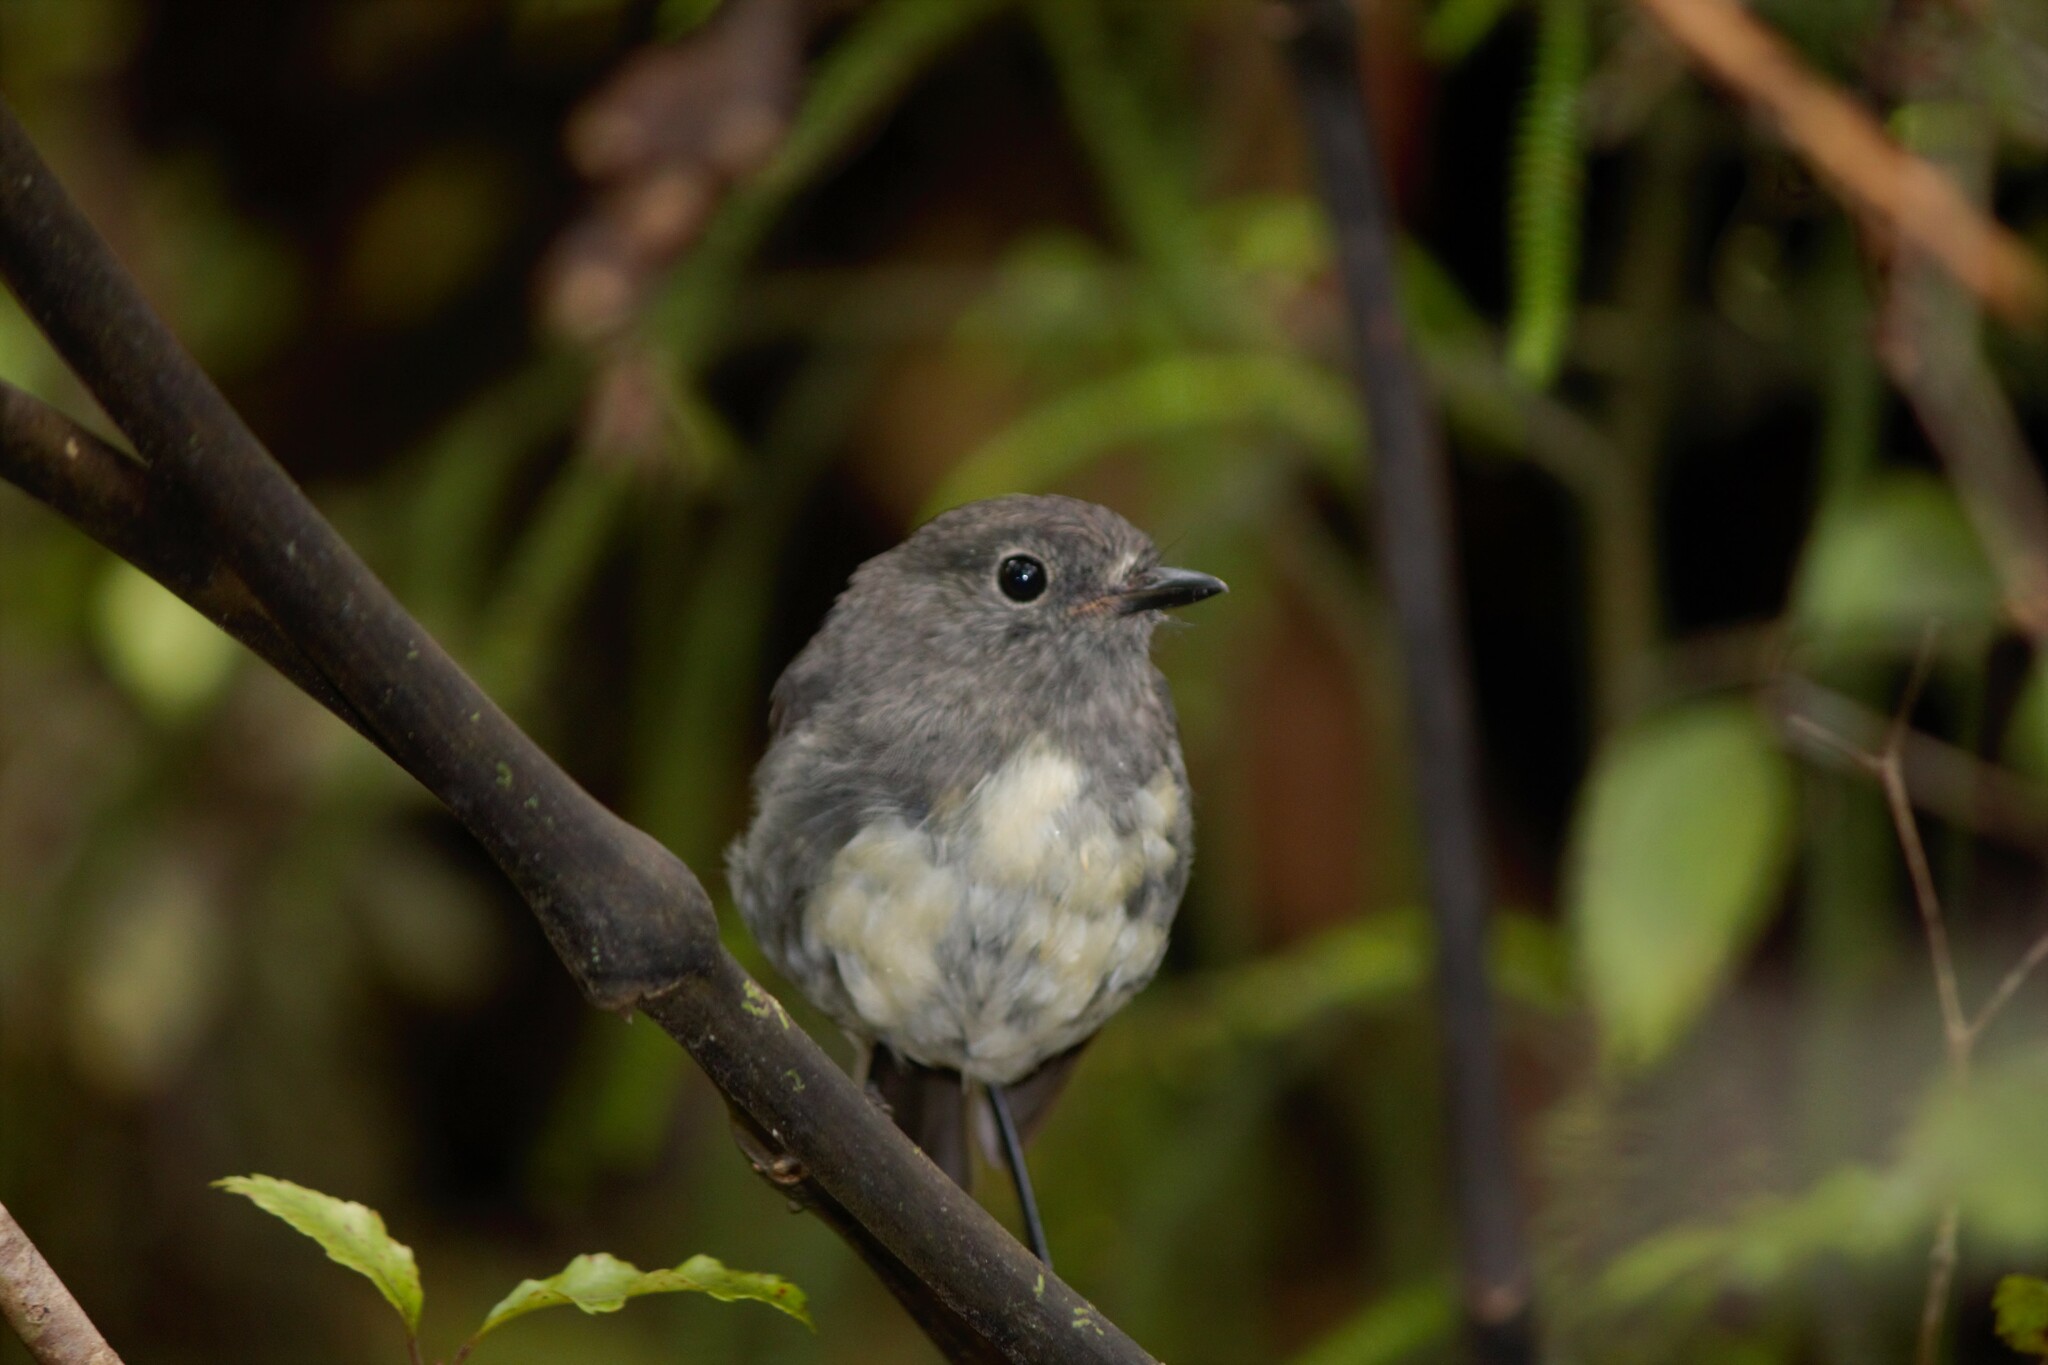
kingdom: Animalia
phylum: Chordata
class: Aves
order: Passeriformes
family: Petroicidae
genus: Petroica
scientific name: Petroica australis
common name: New zealand robin
